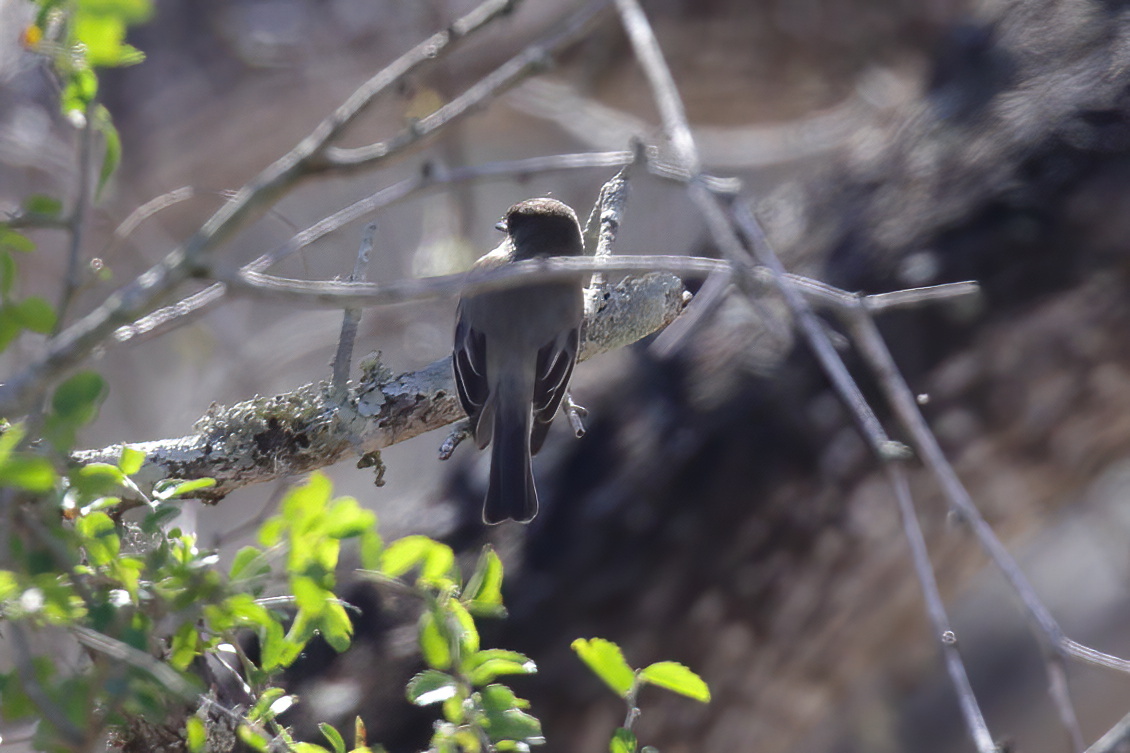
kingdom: Animalia
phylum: Chordata
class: Aves
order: Passeriformes
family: Tyrannidae
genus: Sayornis
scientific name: Sayornis phoebe
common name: Eastern phoebe
